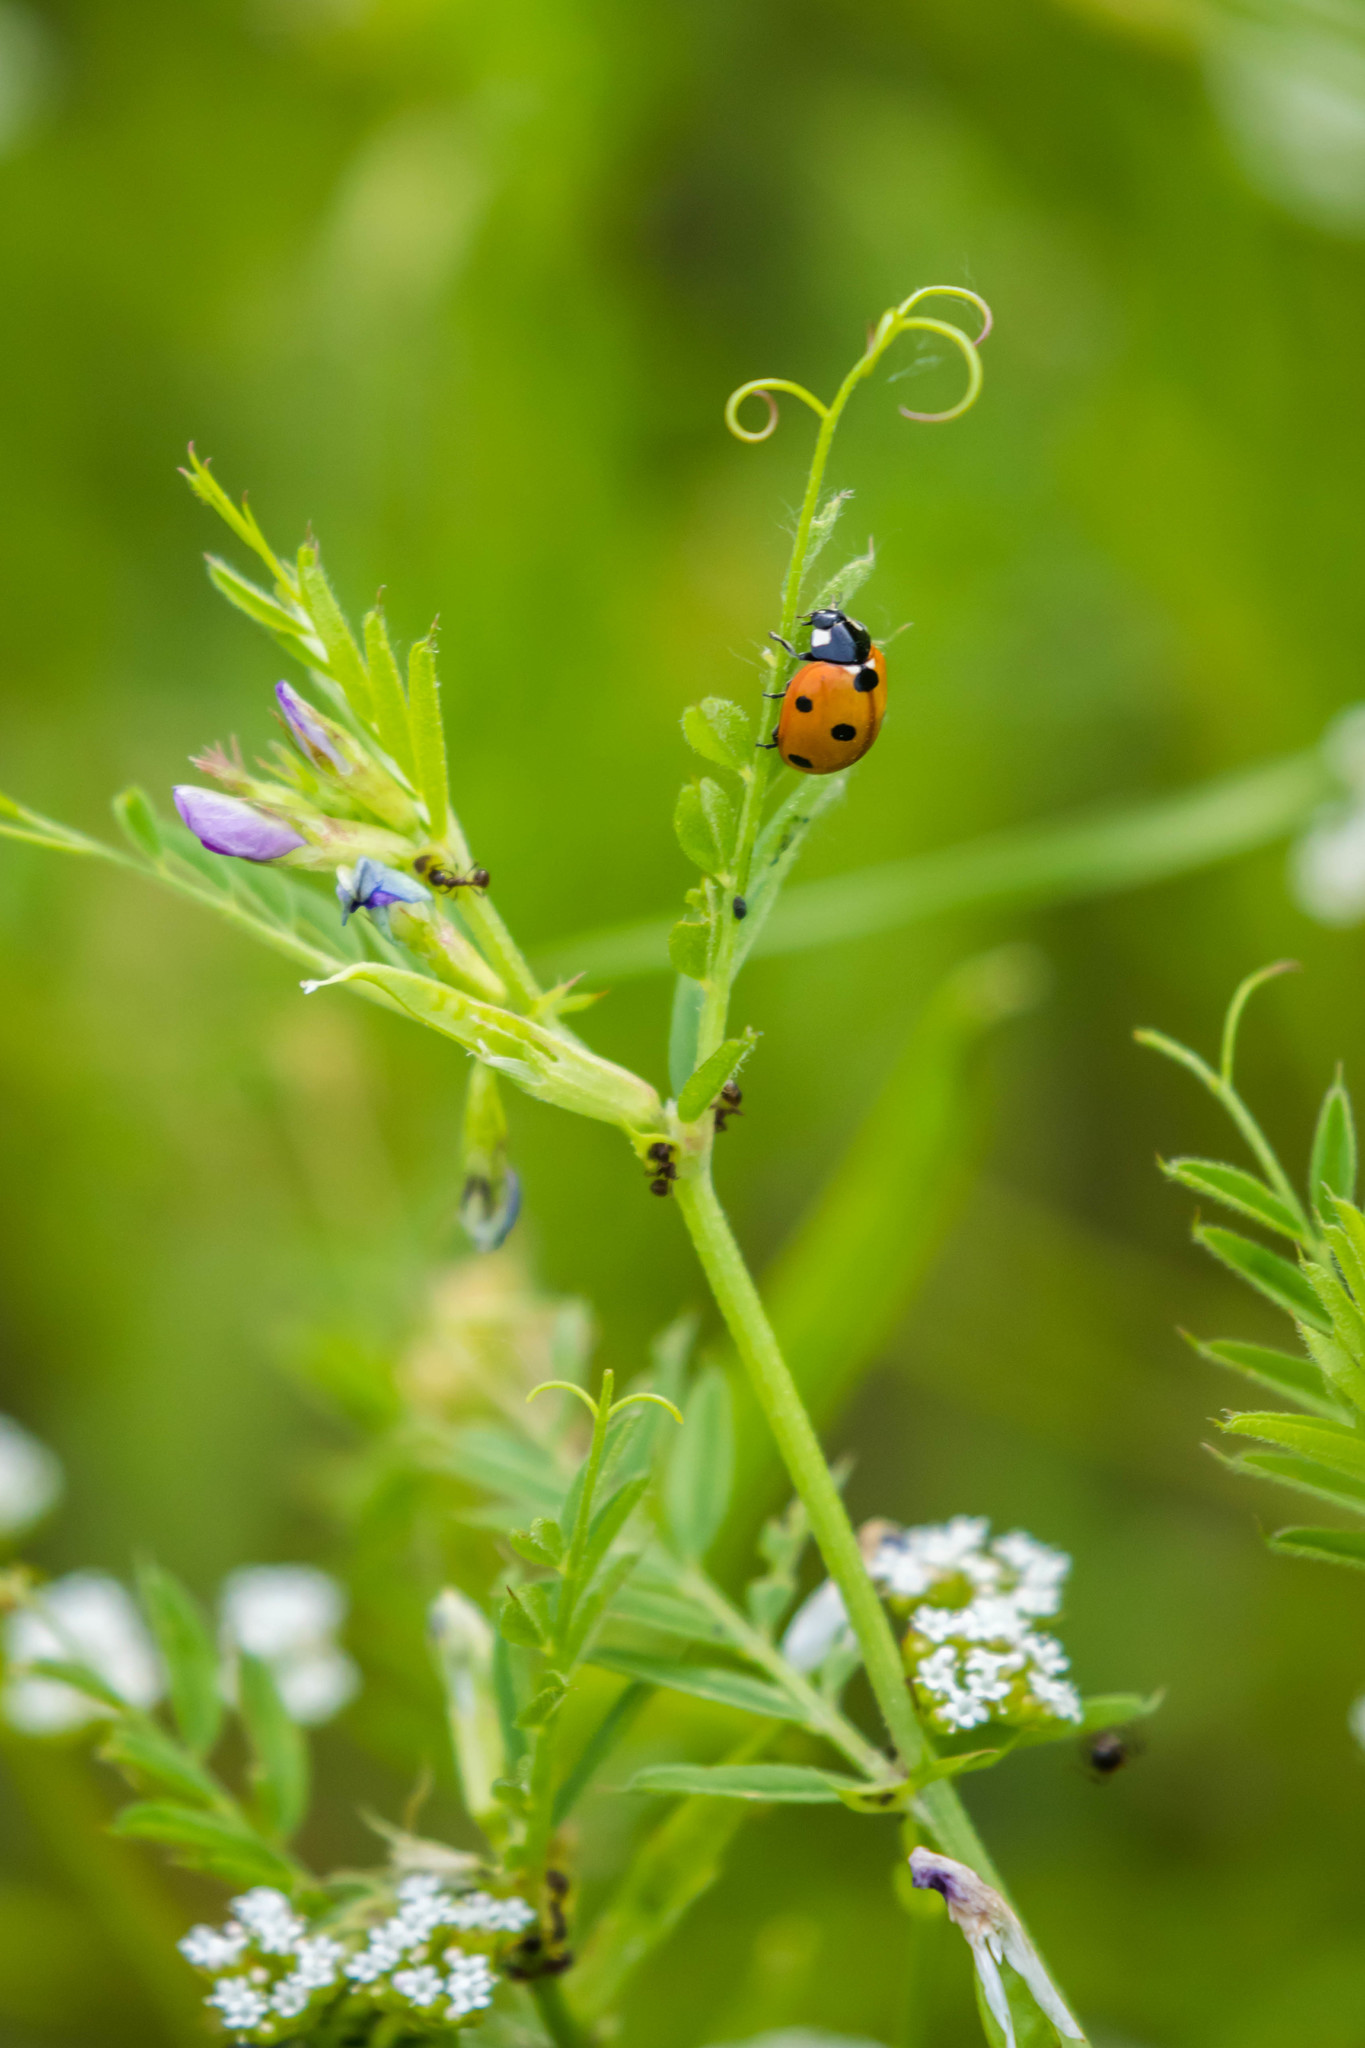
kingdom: Animalia
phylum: Arthropoda
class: Insecta
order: Coleoptera
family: Coccinellidae
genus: Coccinella
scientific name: Coccinella septempunctata
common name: Sevenspotted lady beetle
